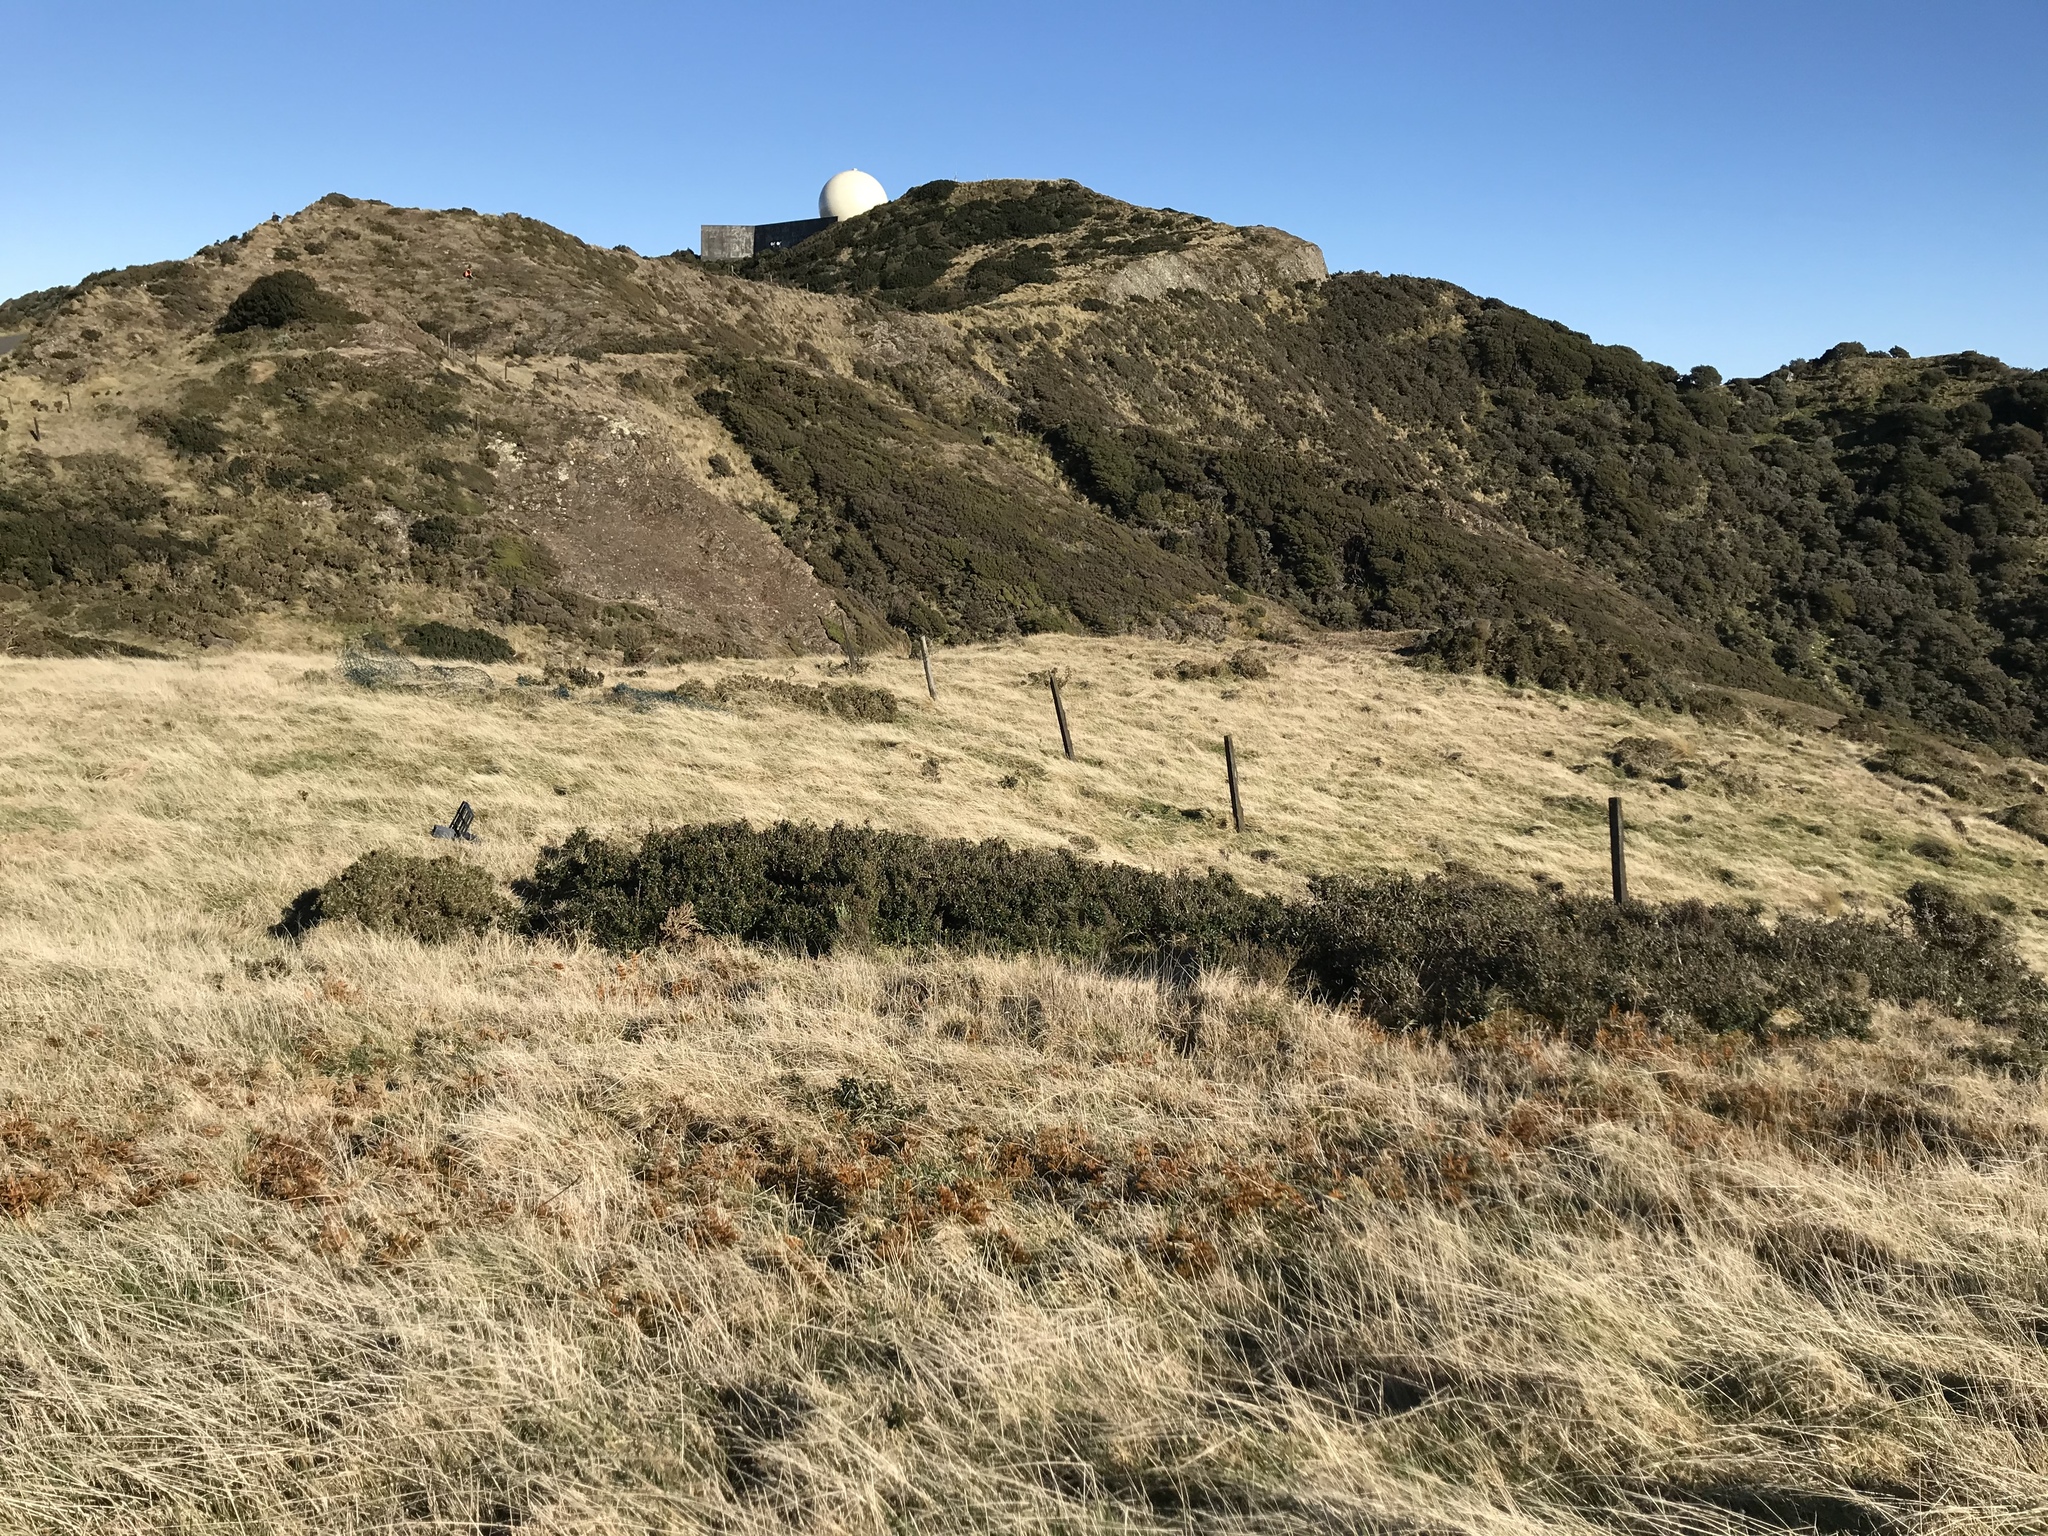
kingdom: Plantae
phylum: Tracheophyta
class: Lycopodiopsida
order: Lycopodiales
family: Lycopodiaceae
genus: Austrolycopodium
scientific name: Austrolycopodium fastigiatum
